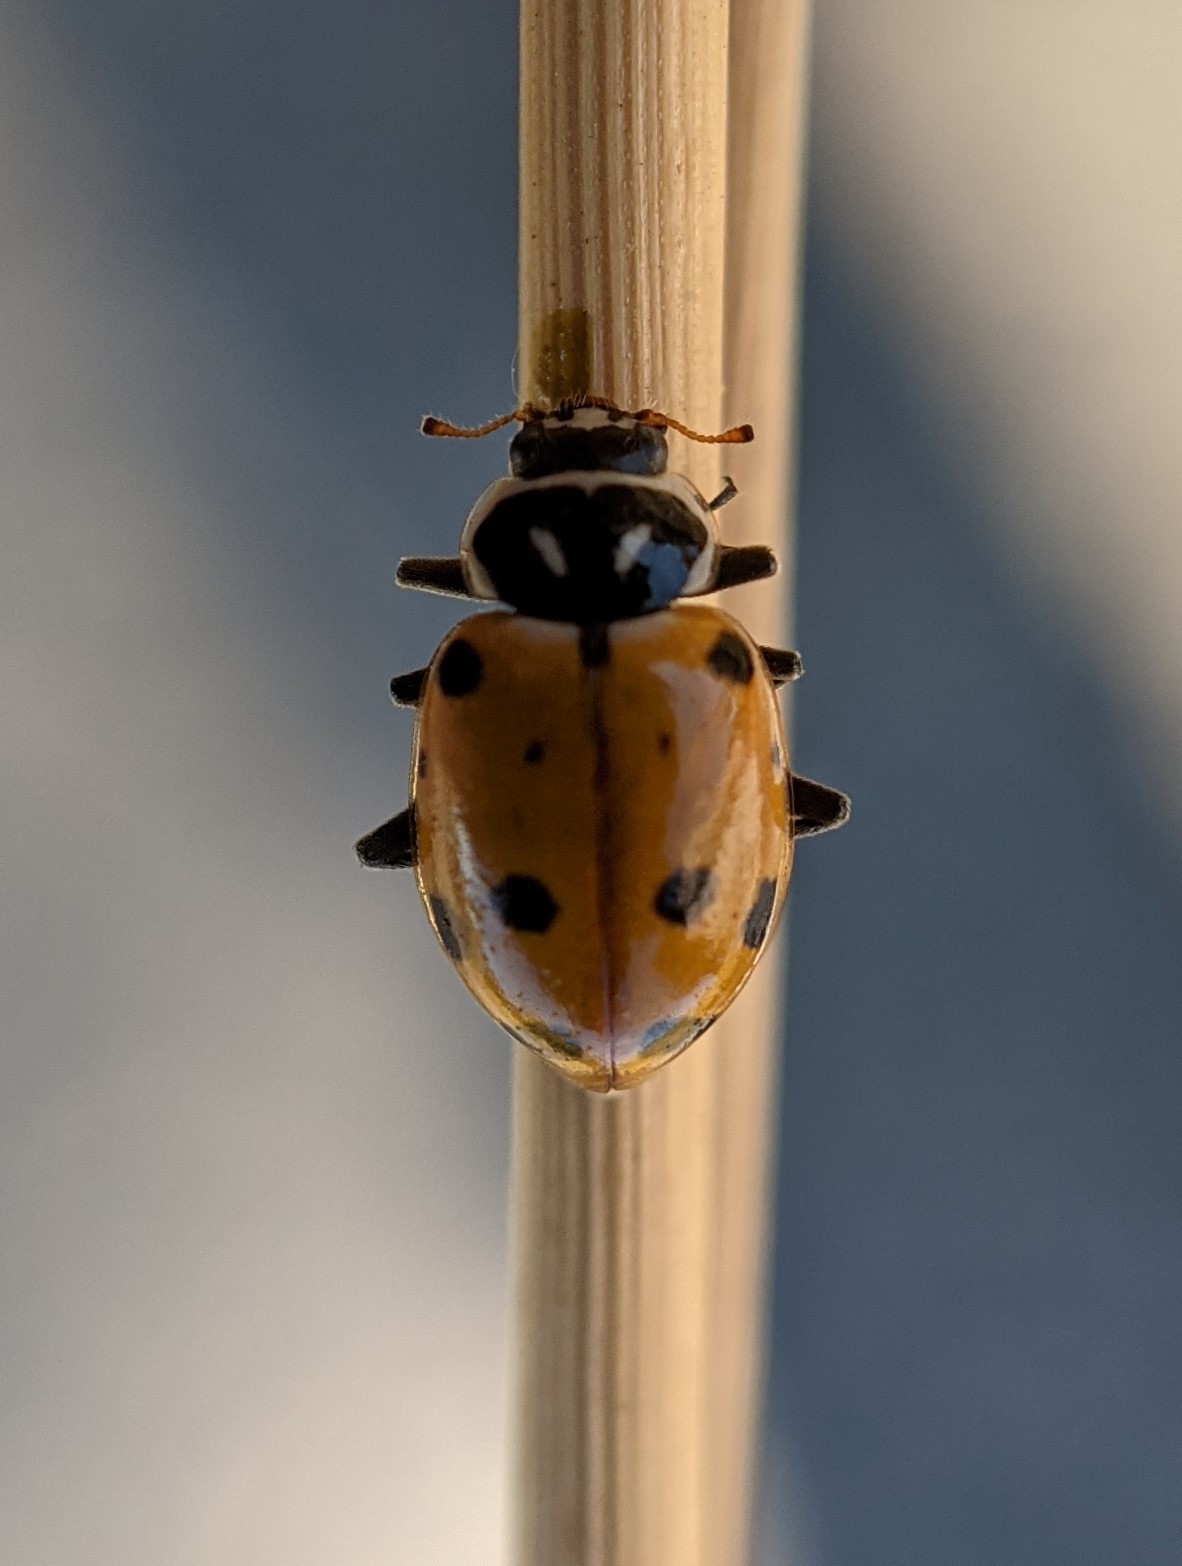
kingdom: Animalia
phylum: Arthropoda
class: Insecta
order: Coleoptera
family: Coccinellidae
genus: Hippodamia
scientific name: Hippodamia convergens
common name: Convergent lady beetle
